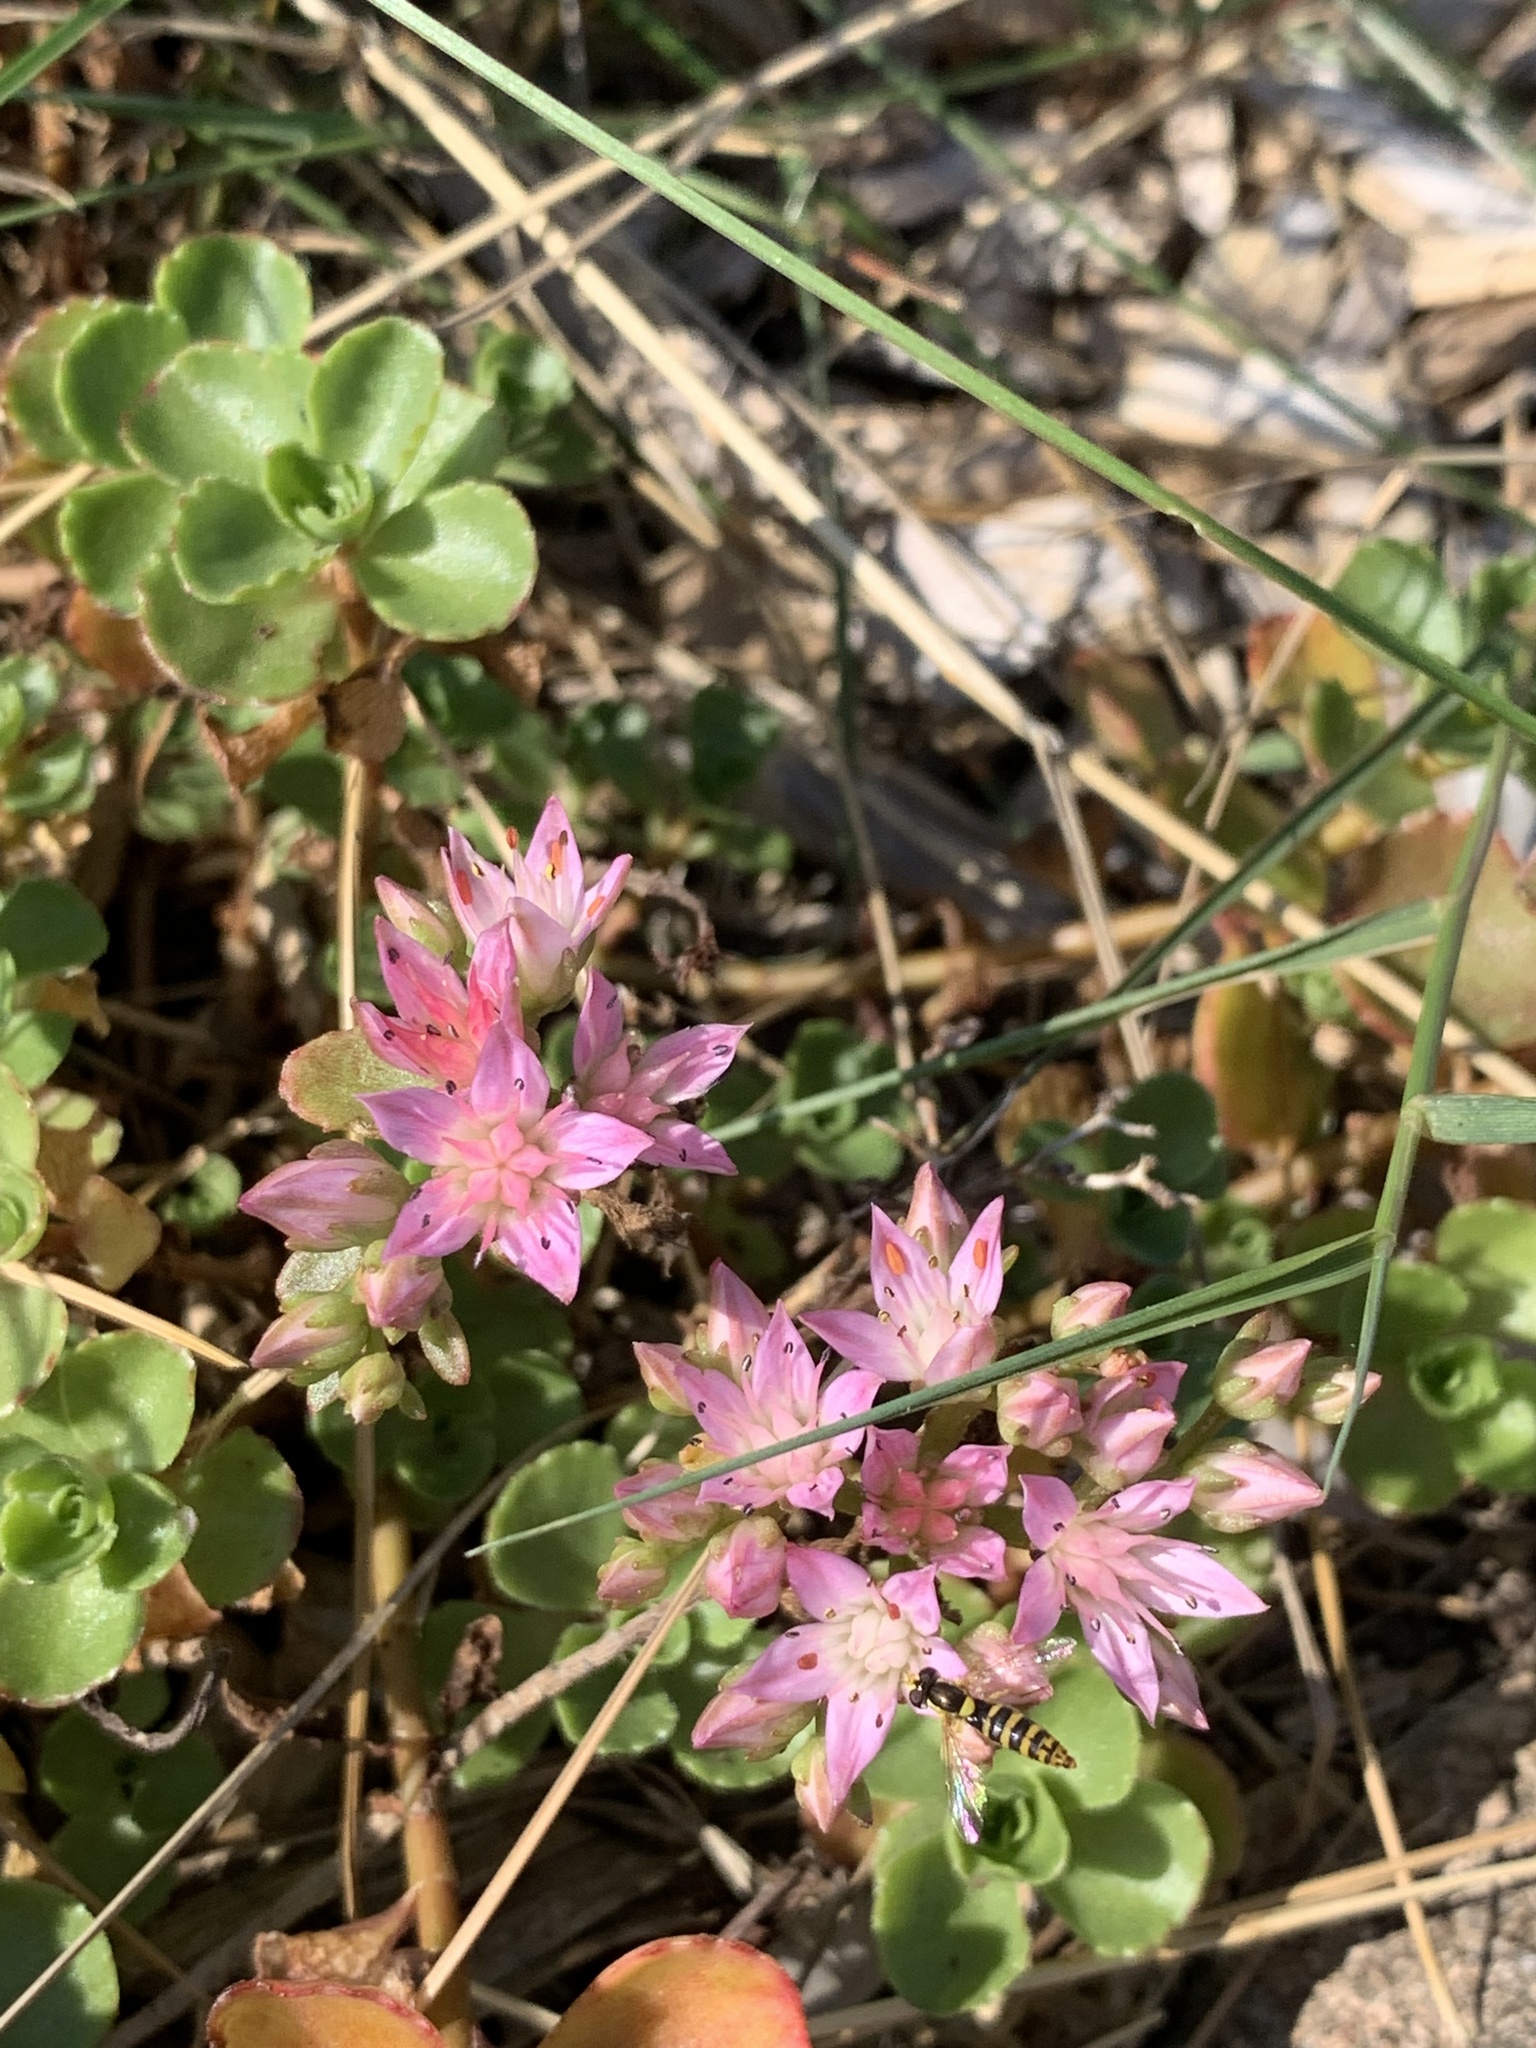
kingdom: Plantae
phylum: Tracheophyta
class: Magnoliopsida
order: Saxifragales
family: Crassulaceae
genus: Phedimus
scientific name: Phedimus spurius
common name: Caucasian stonecrop
